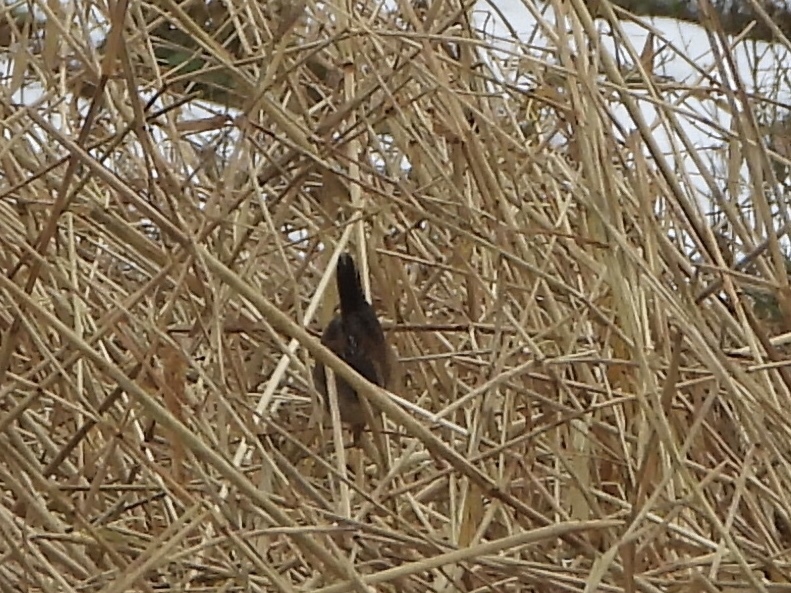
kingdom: Animalia
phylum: Chordata
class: Aves
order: Passeriformes
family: Troglodytidae
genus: Cistothorus
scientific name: Cistothorus palustris
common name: Marsh wren
